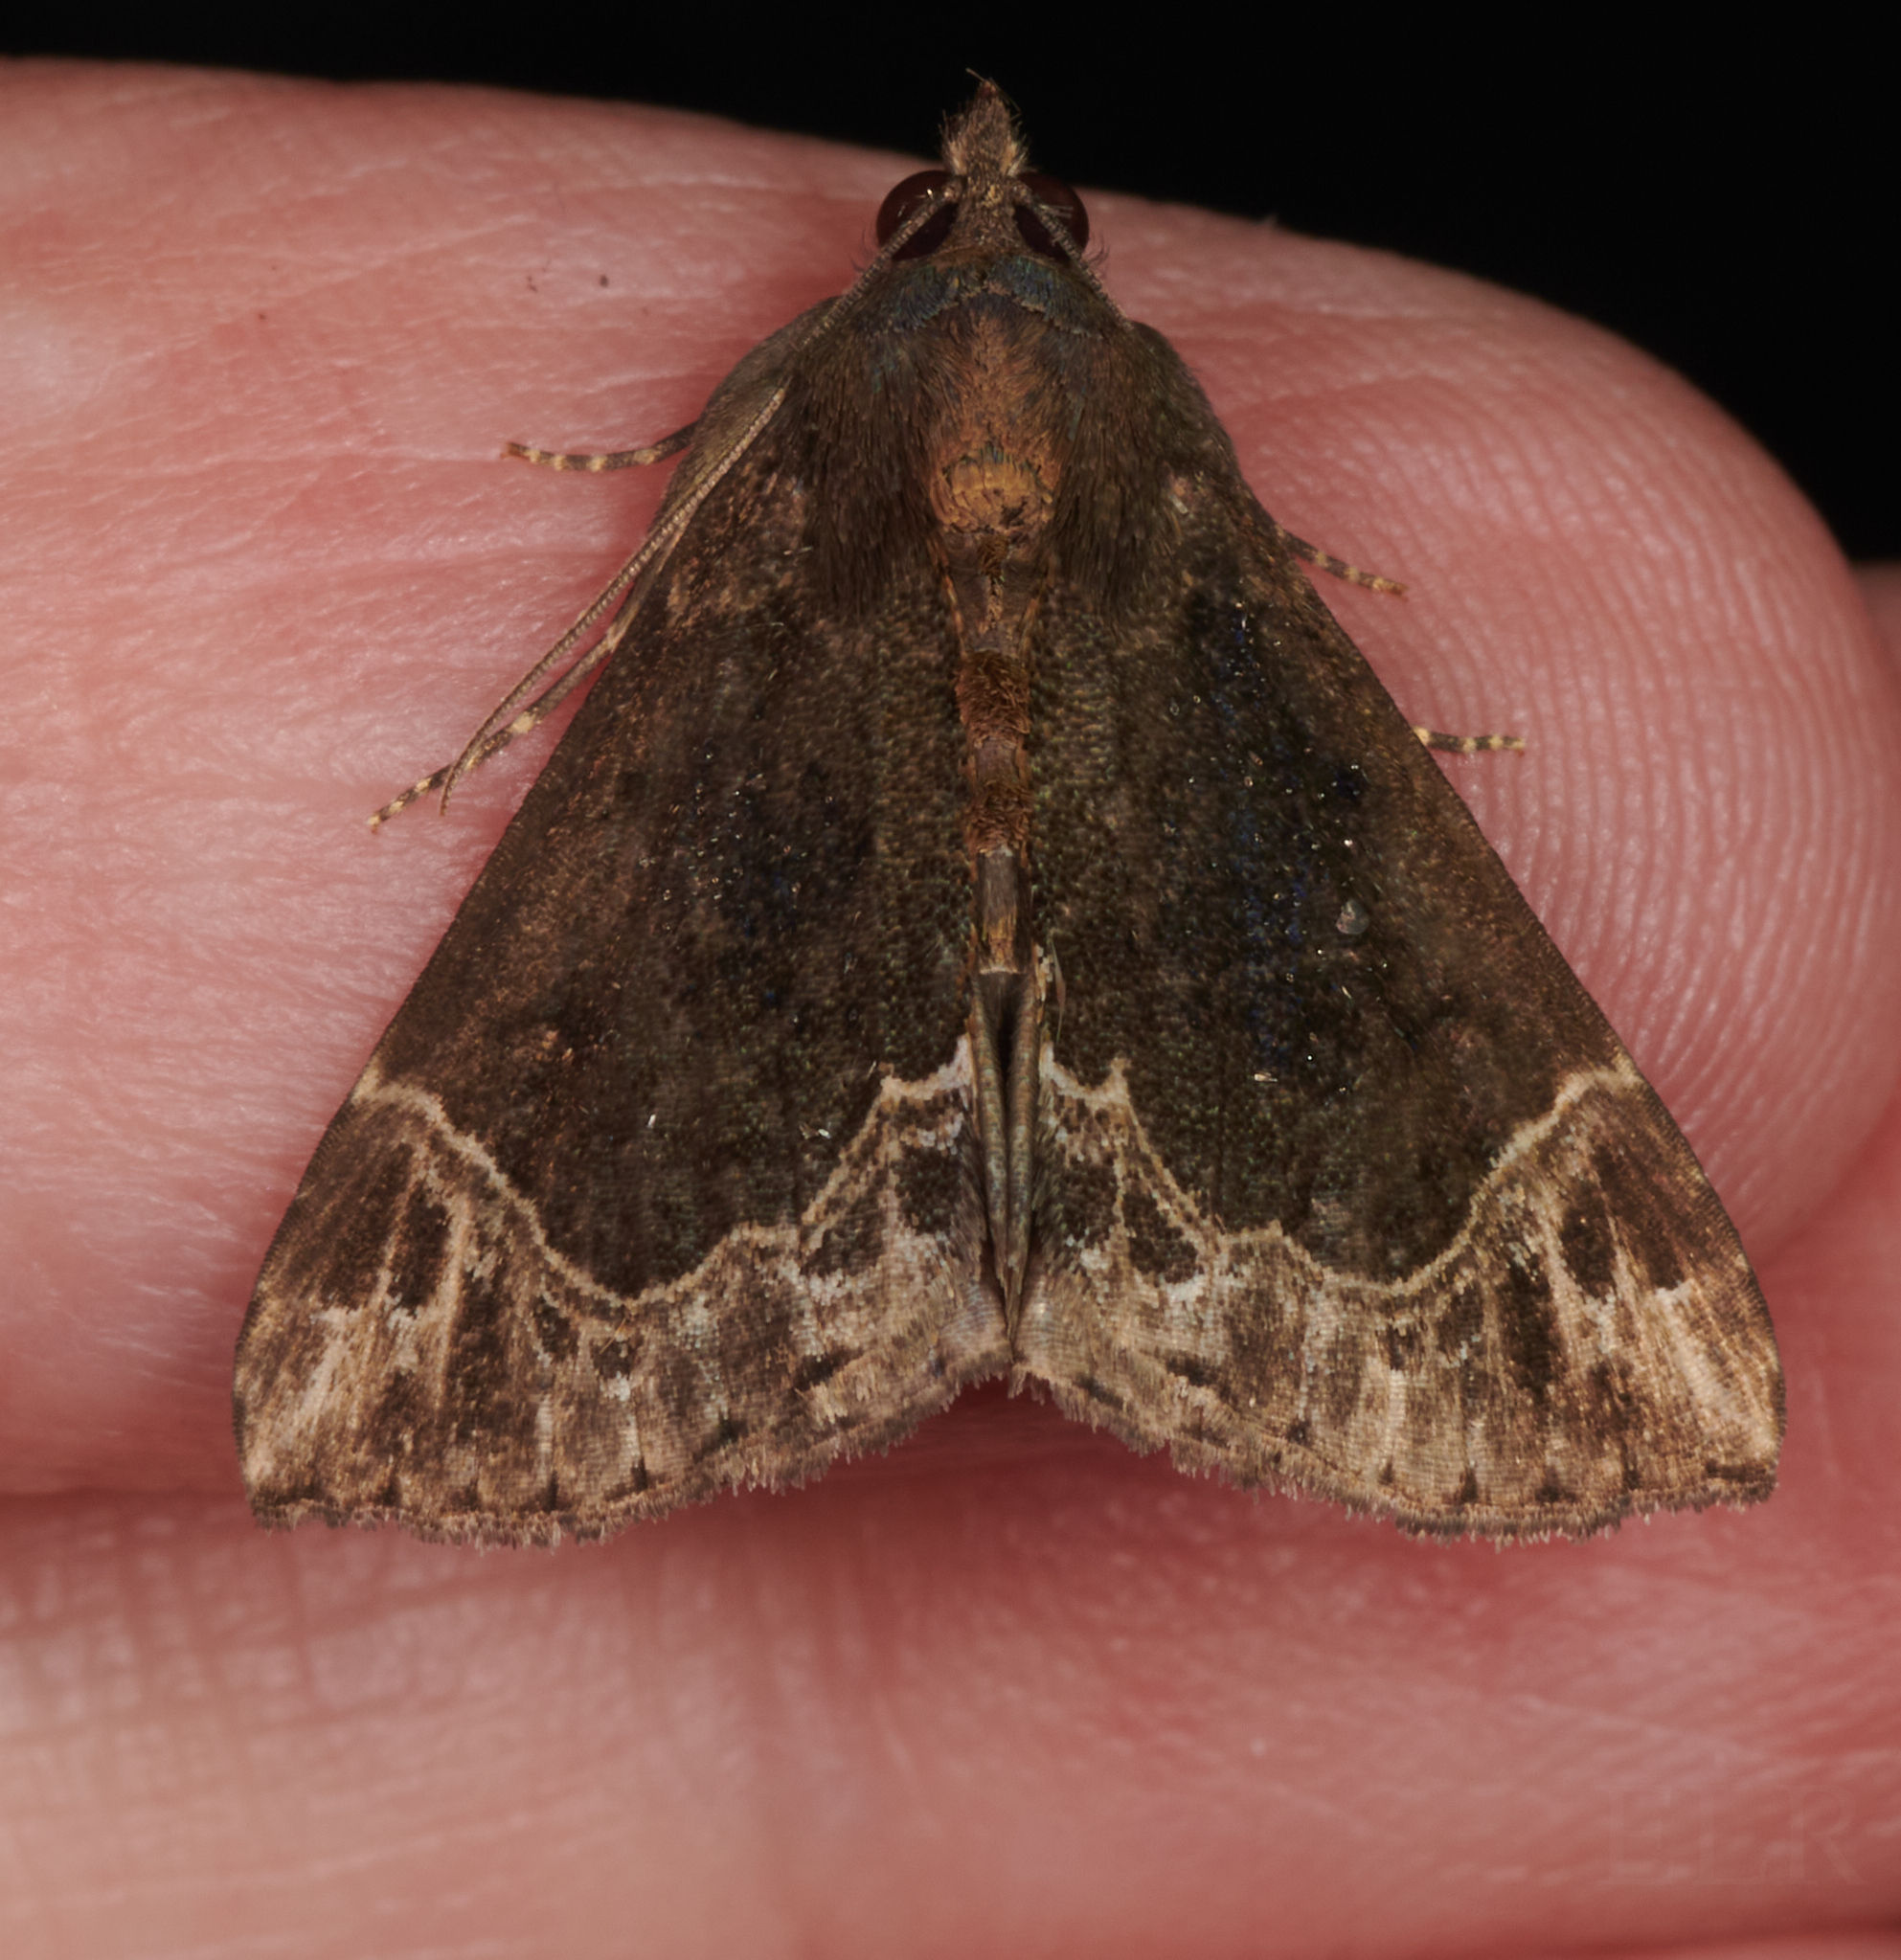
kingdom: Animalia
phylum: Arthropoda
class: Insecta
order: Lepidoptera
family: Erebidae
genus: Hypena
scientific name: Hypena abalienalis
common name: White-lined snout
